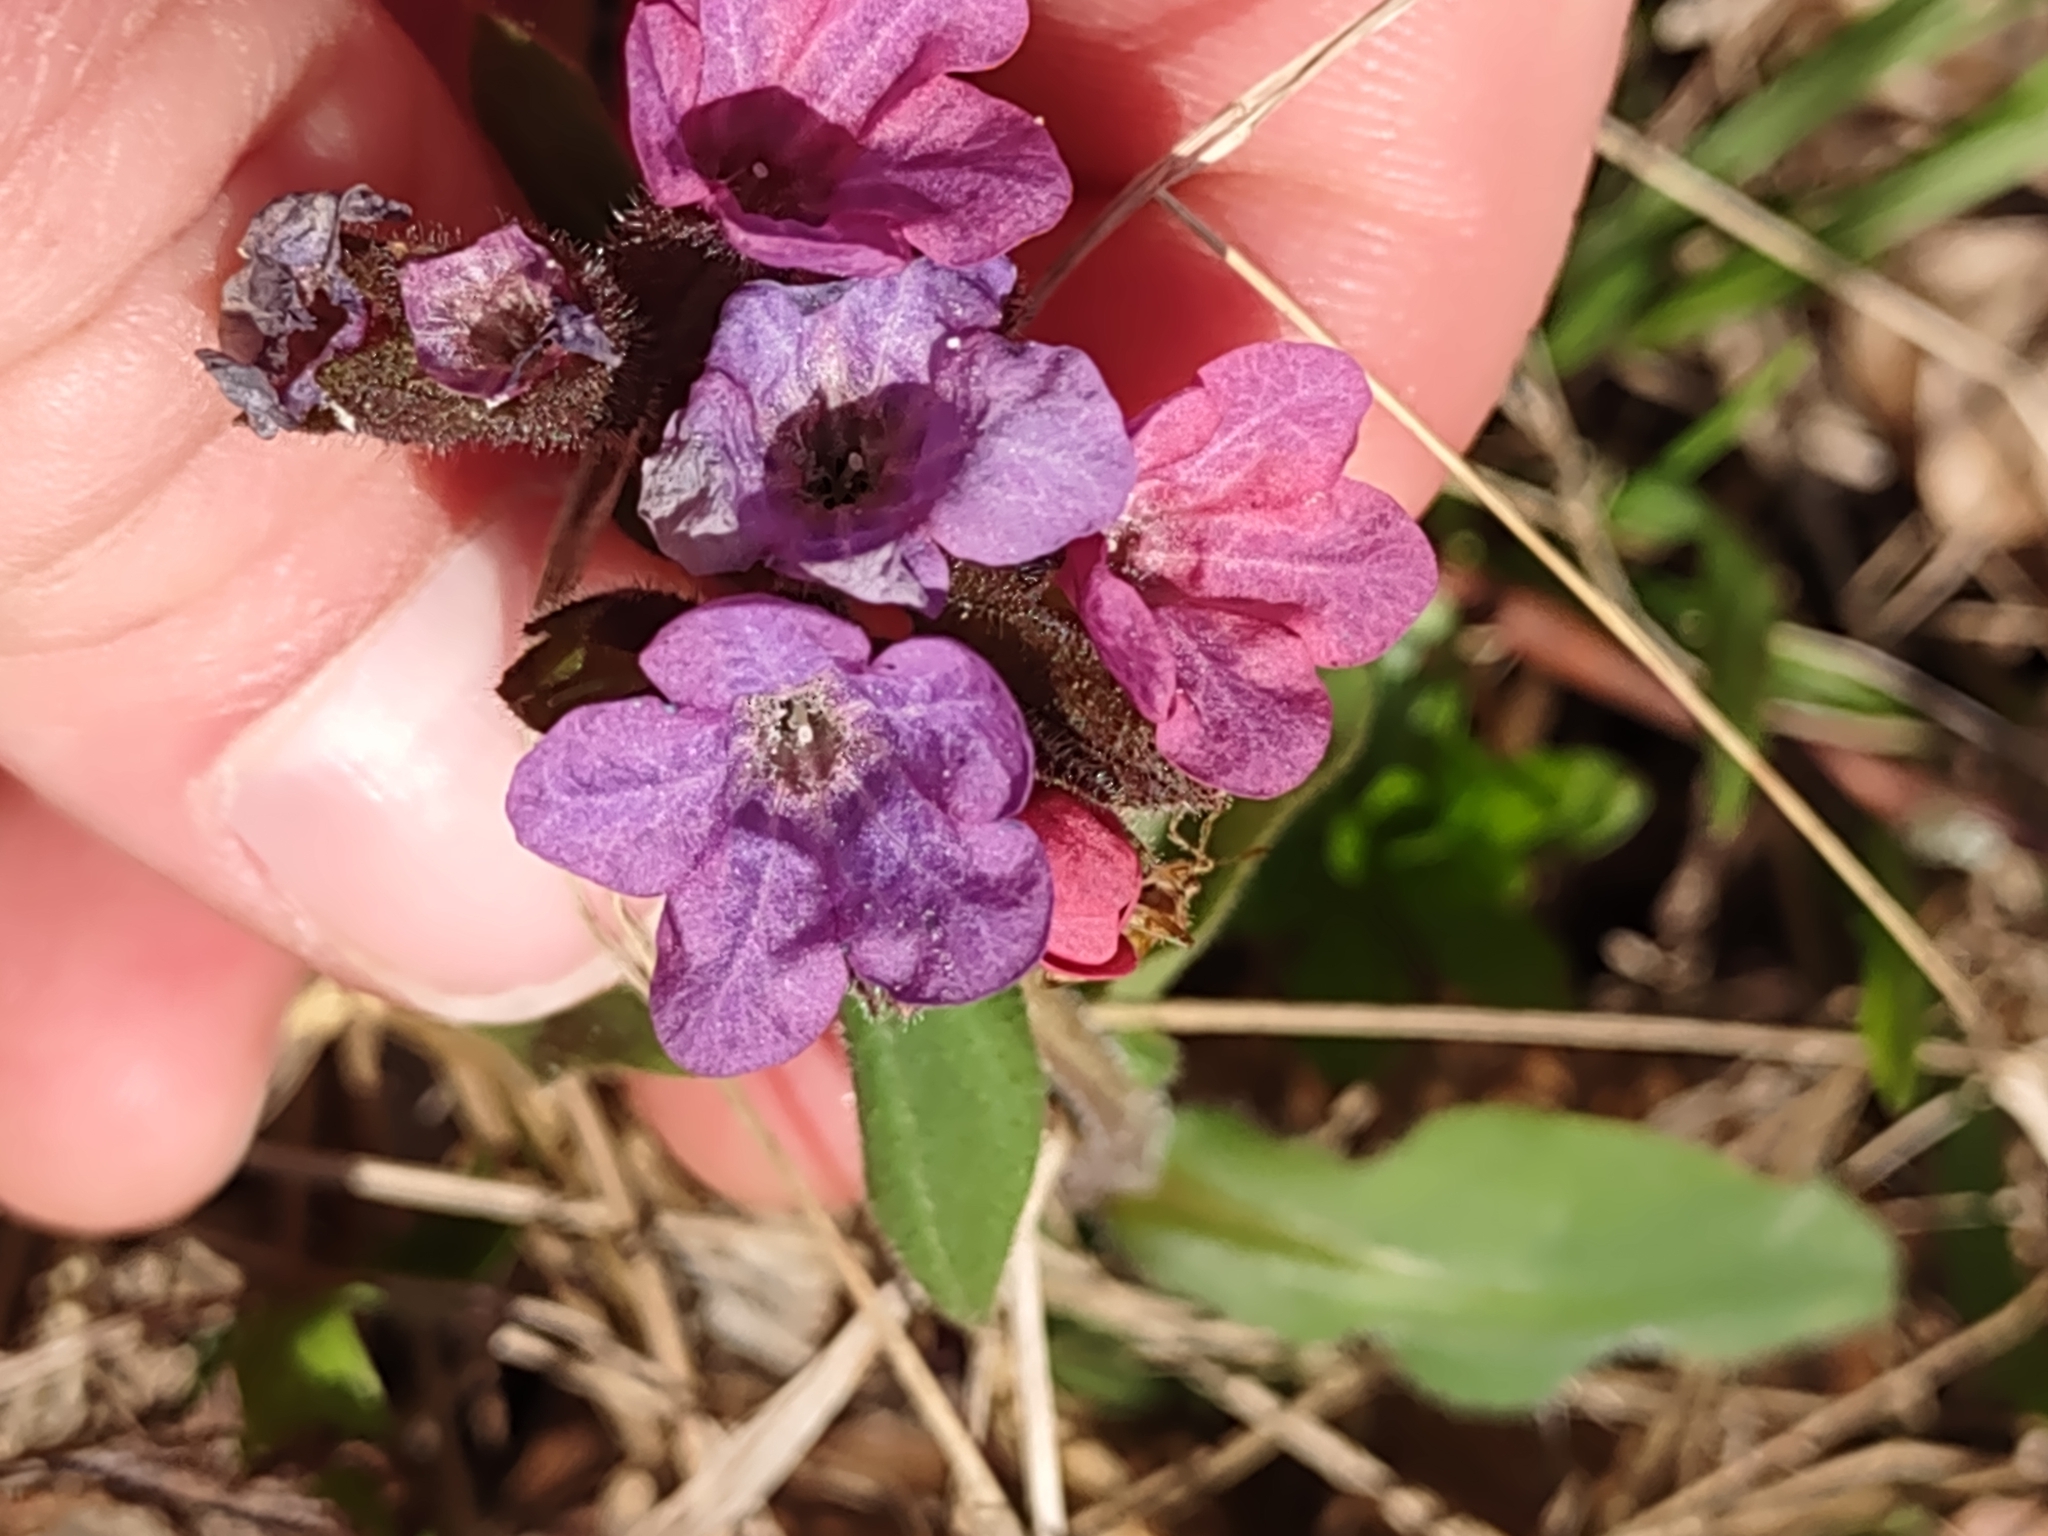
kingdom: Plantae
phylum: Tracheophyta
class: Magnoliopsida
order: Boraginales
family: Boraginaceae
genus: Pulmonaria
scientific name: Pulmonaria obscura
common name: Suffolk lungwort
